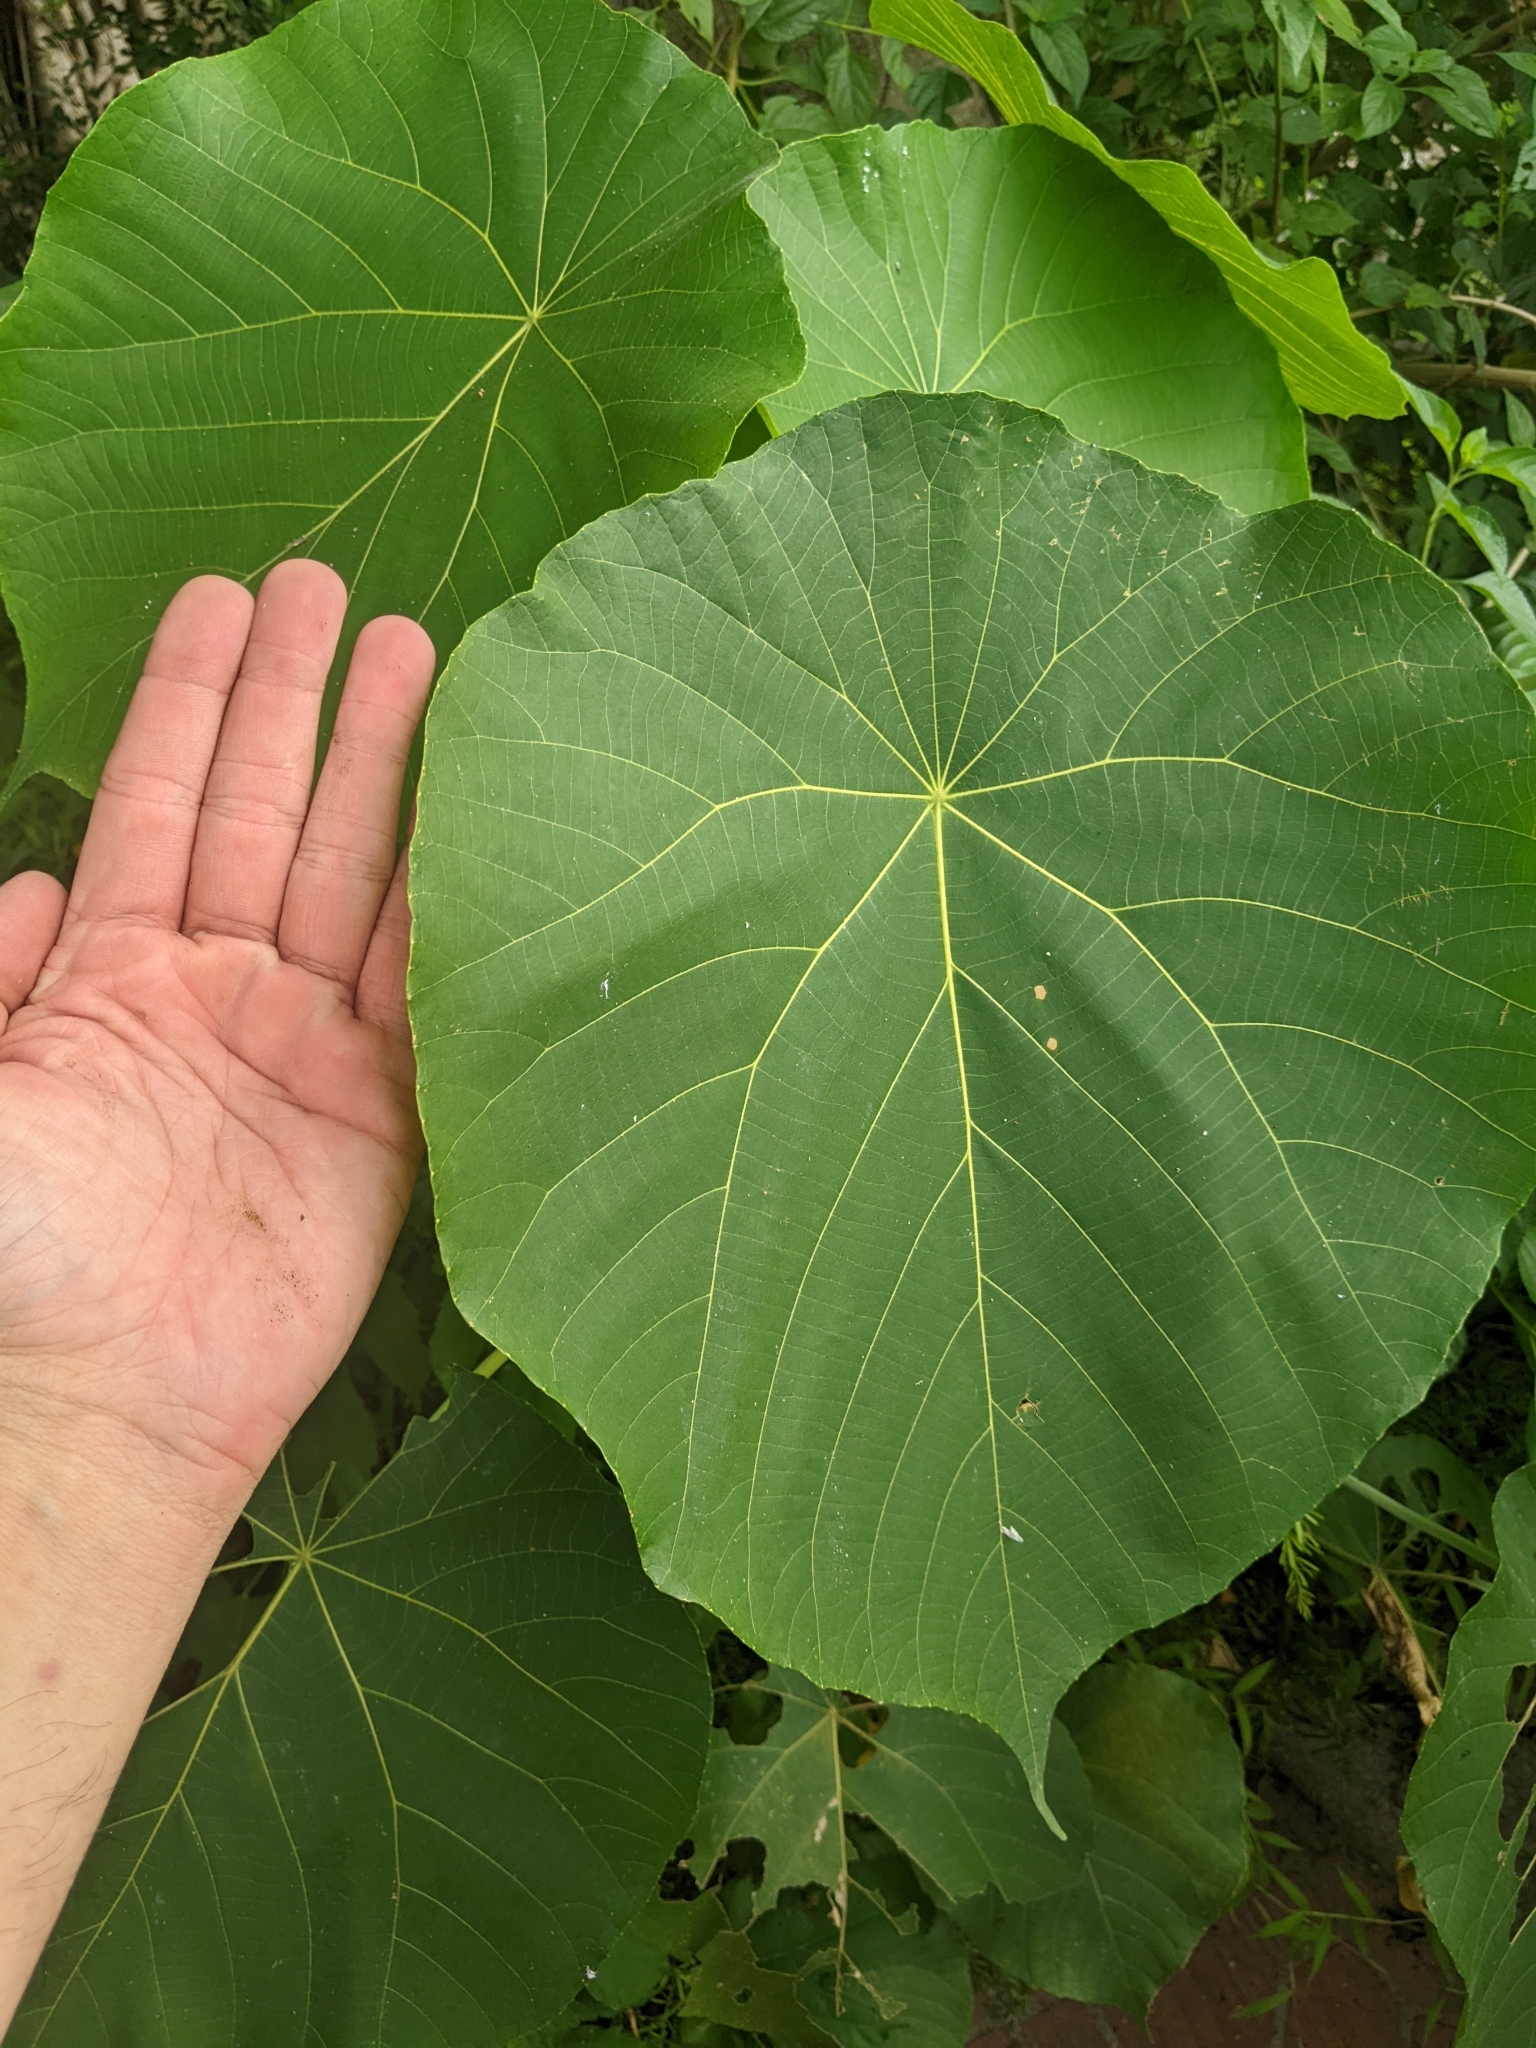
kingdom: Plantae
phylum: Tracheophyta
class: Magnoliopsida
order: Malpighiales
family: Euphorbiaceae
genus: Macaranga
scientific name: Macaranga tanarius
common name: Parasol leaf tree
